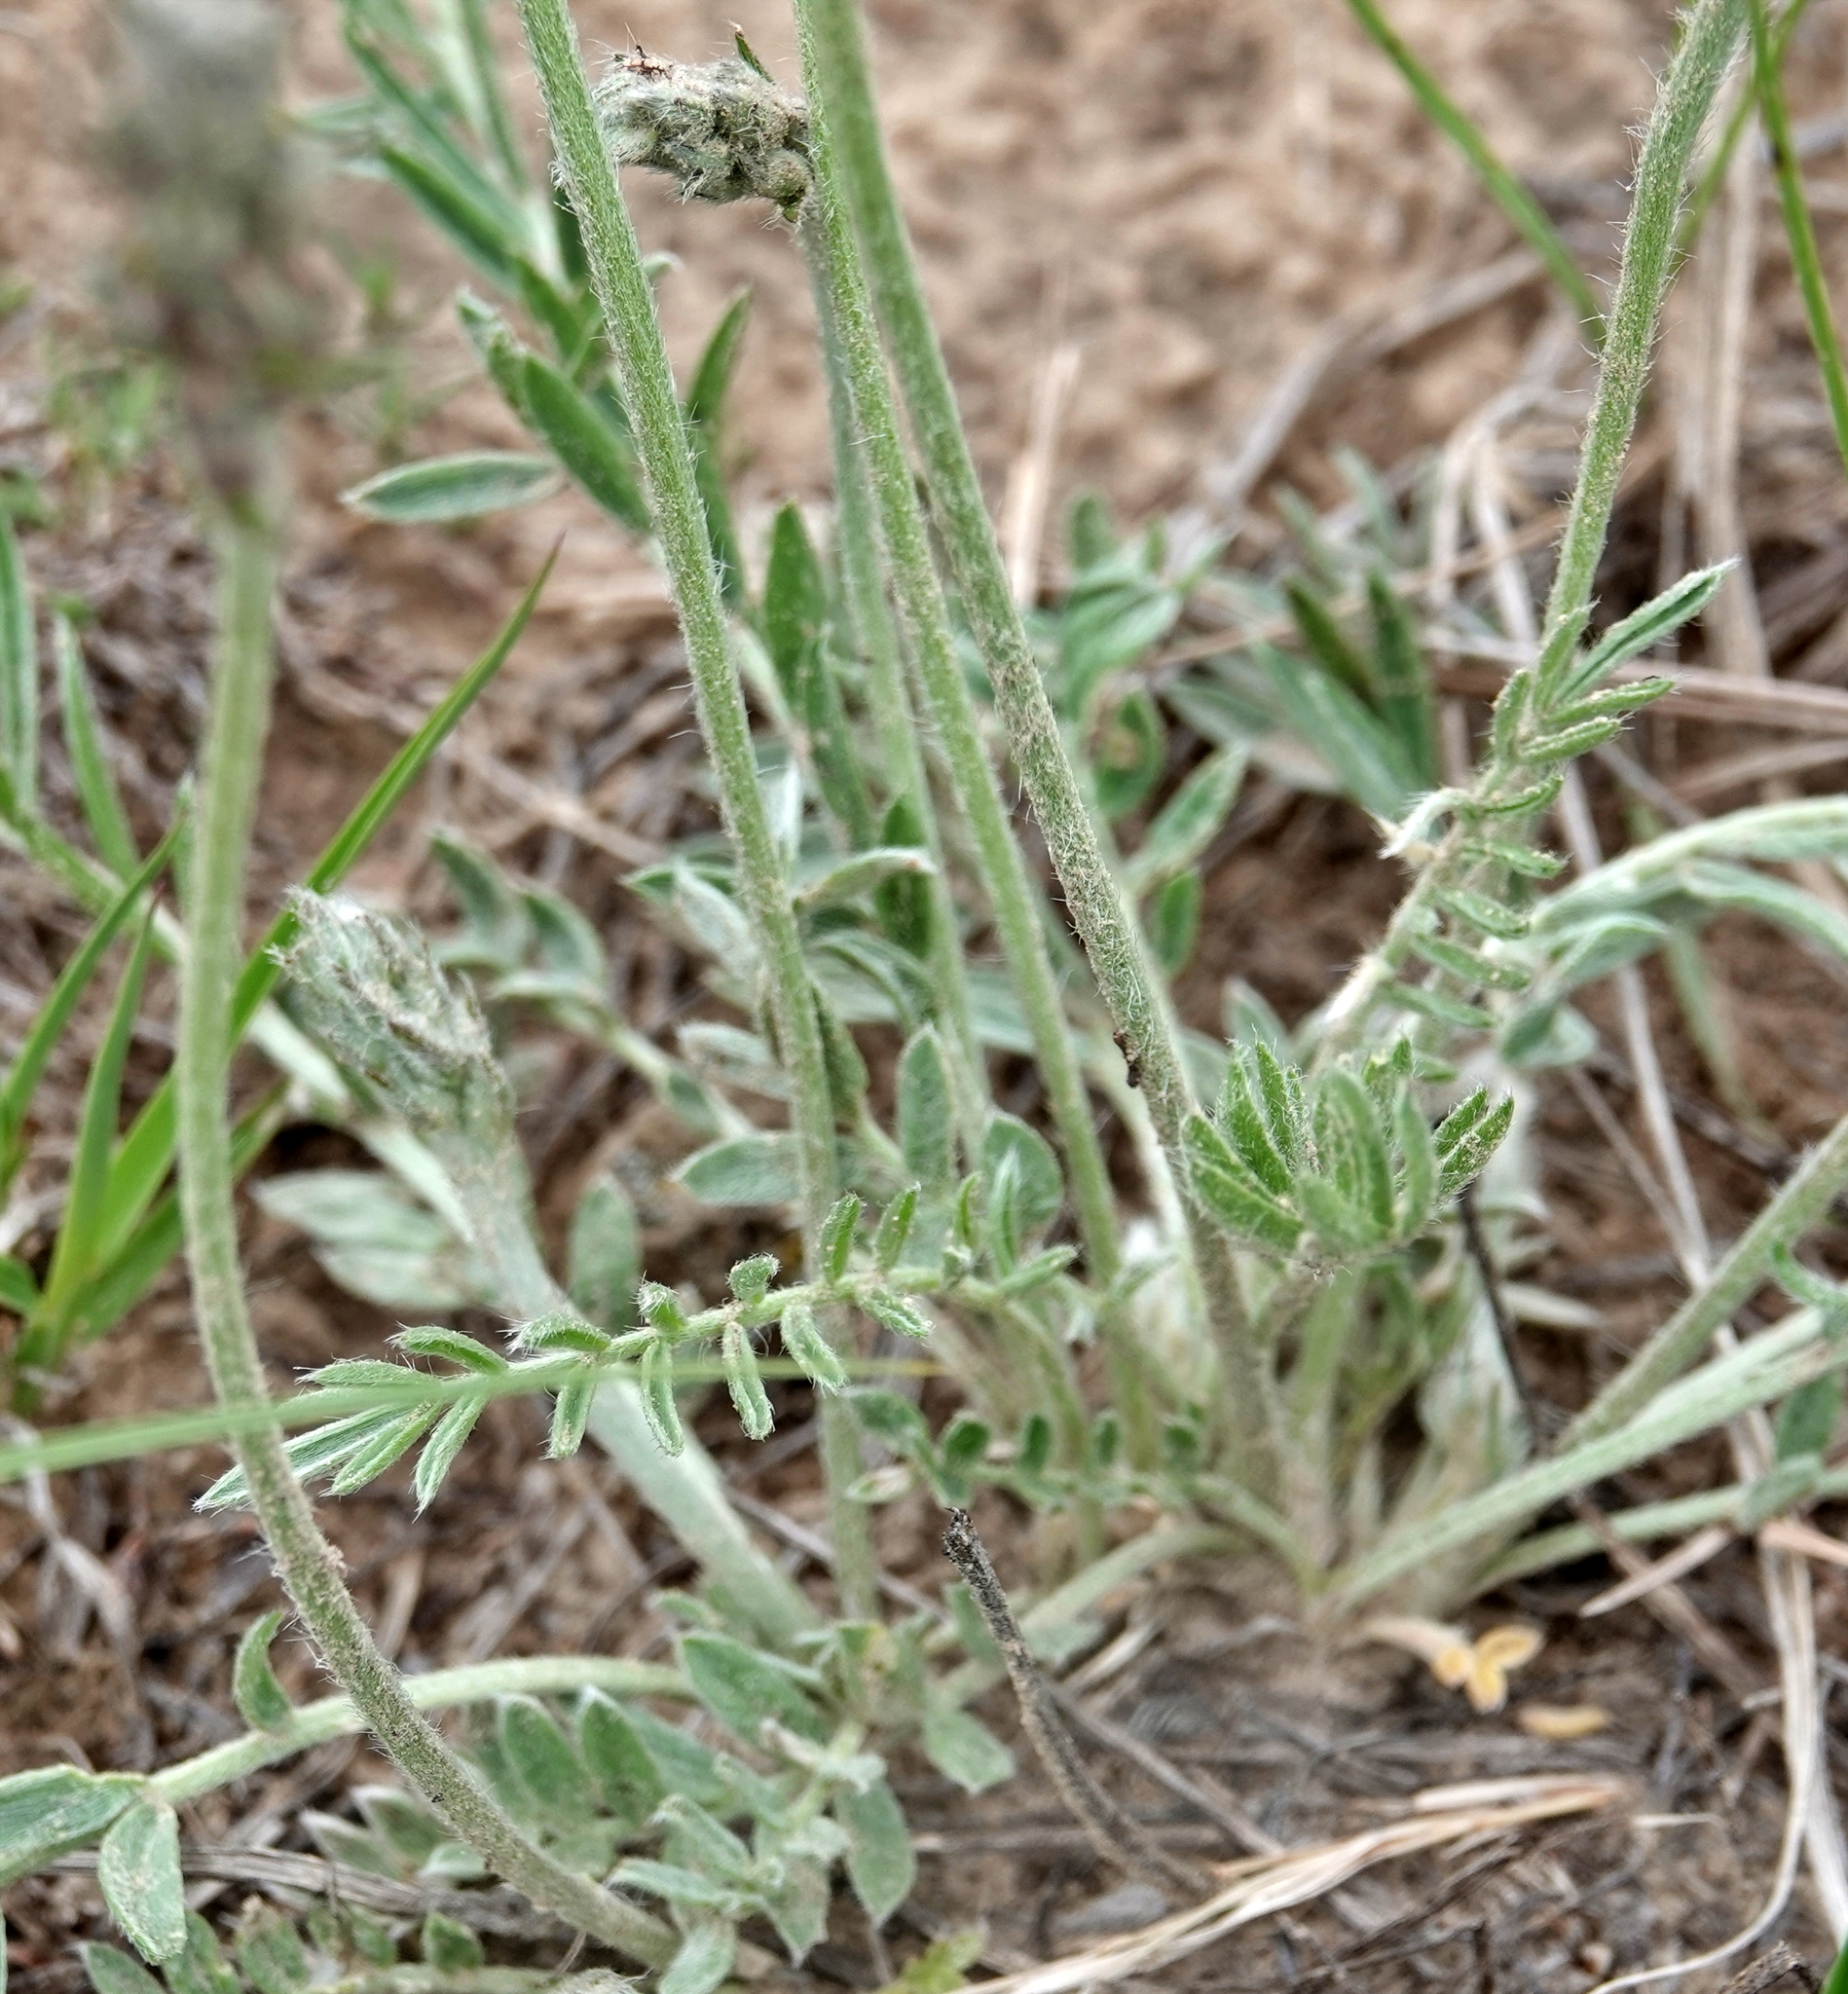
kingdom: Plantae
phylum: Tracheophyta
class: Magnoliopsida
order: Fabales
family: Fabaceae
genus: Oxytropis
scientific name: Oxytropis lambertii
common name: Purple locoweed
